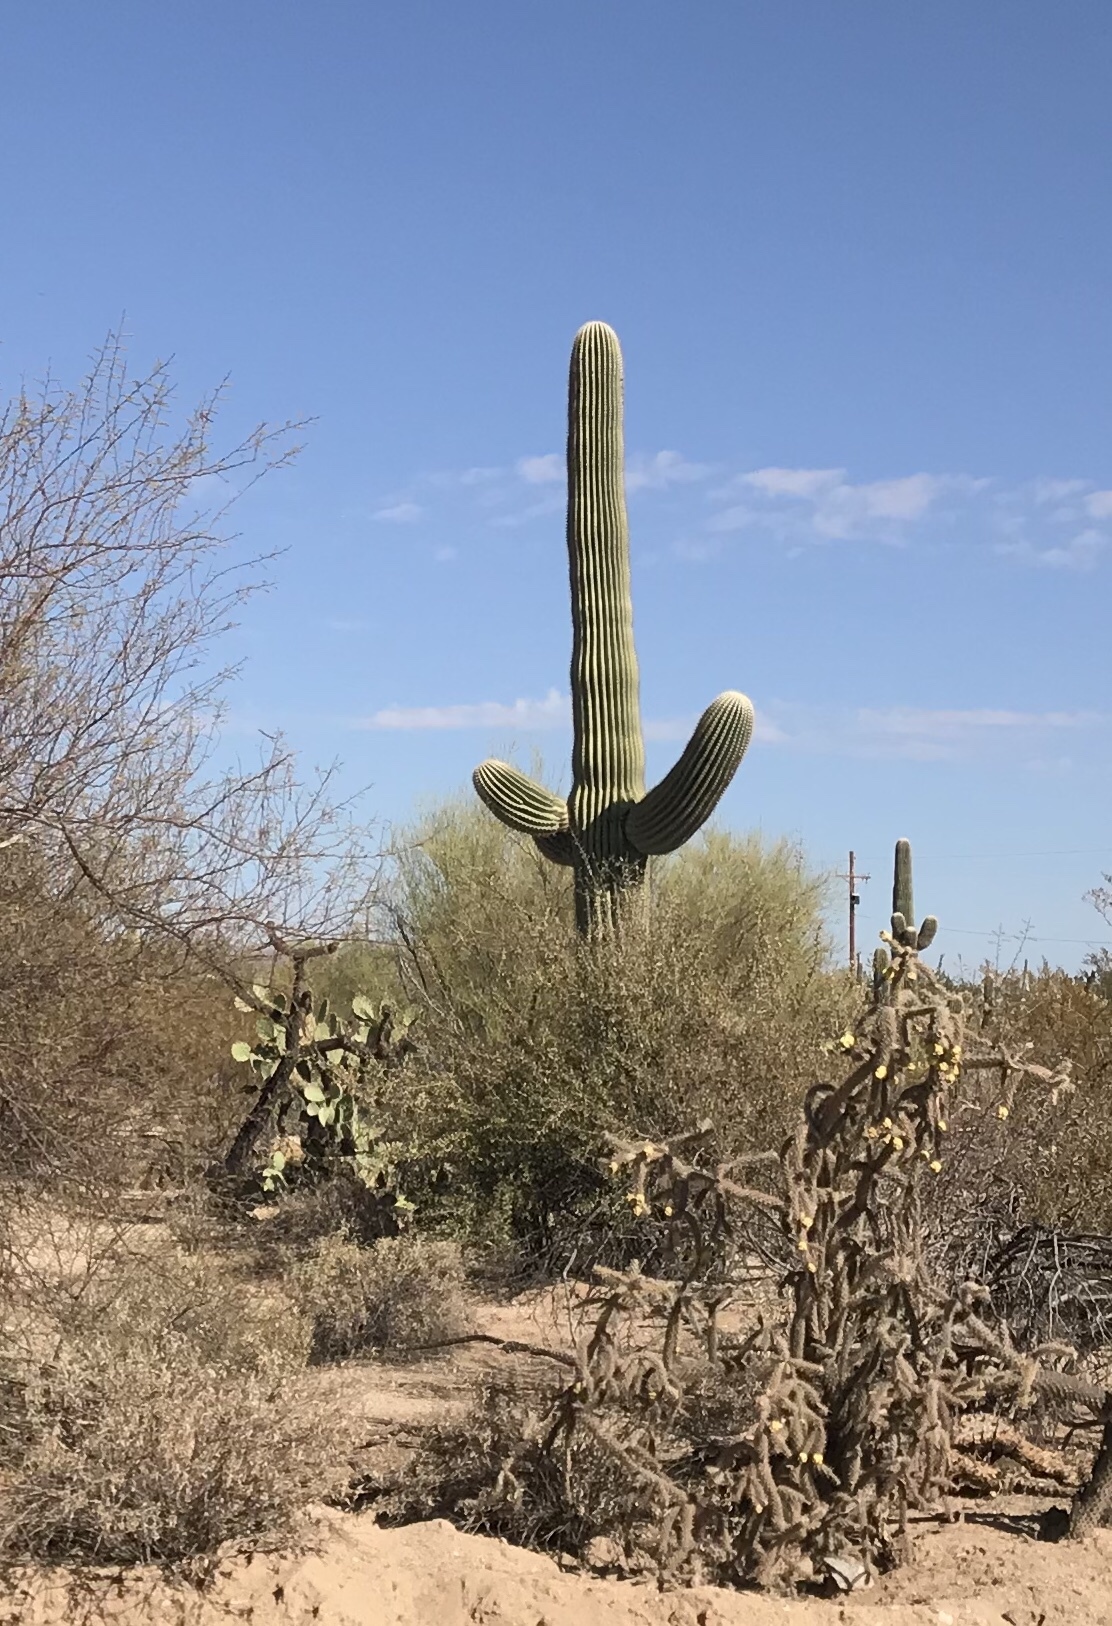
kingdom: Plantae
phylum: Tracheophyta
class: Magnoliopsida
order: Caryophyllales
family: Cactaceae
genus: Carnegiea
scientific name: Carnegiea gigantea
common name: Saguaro
